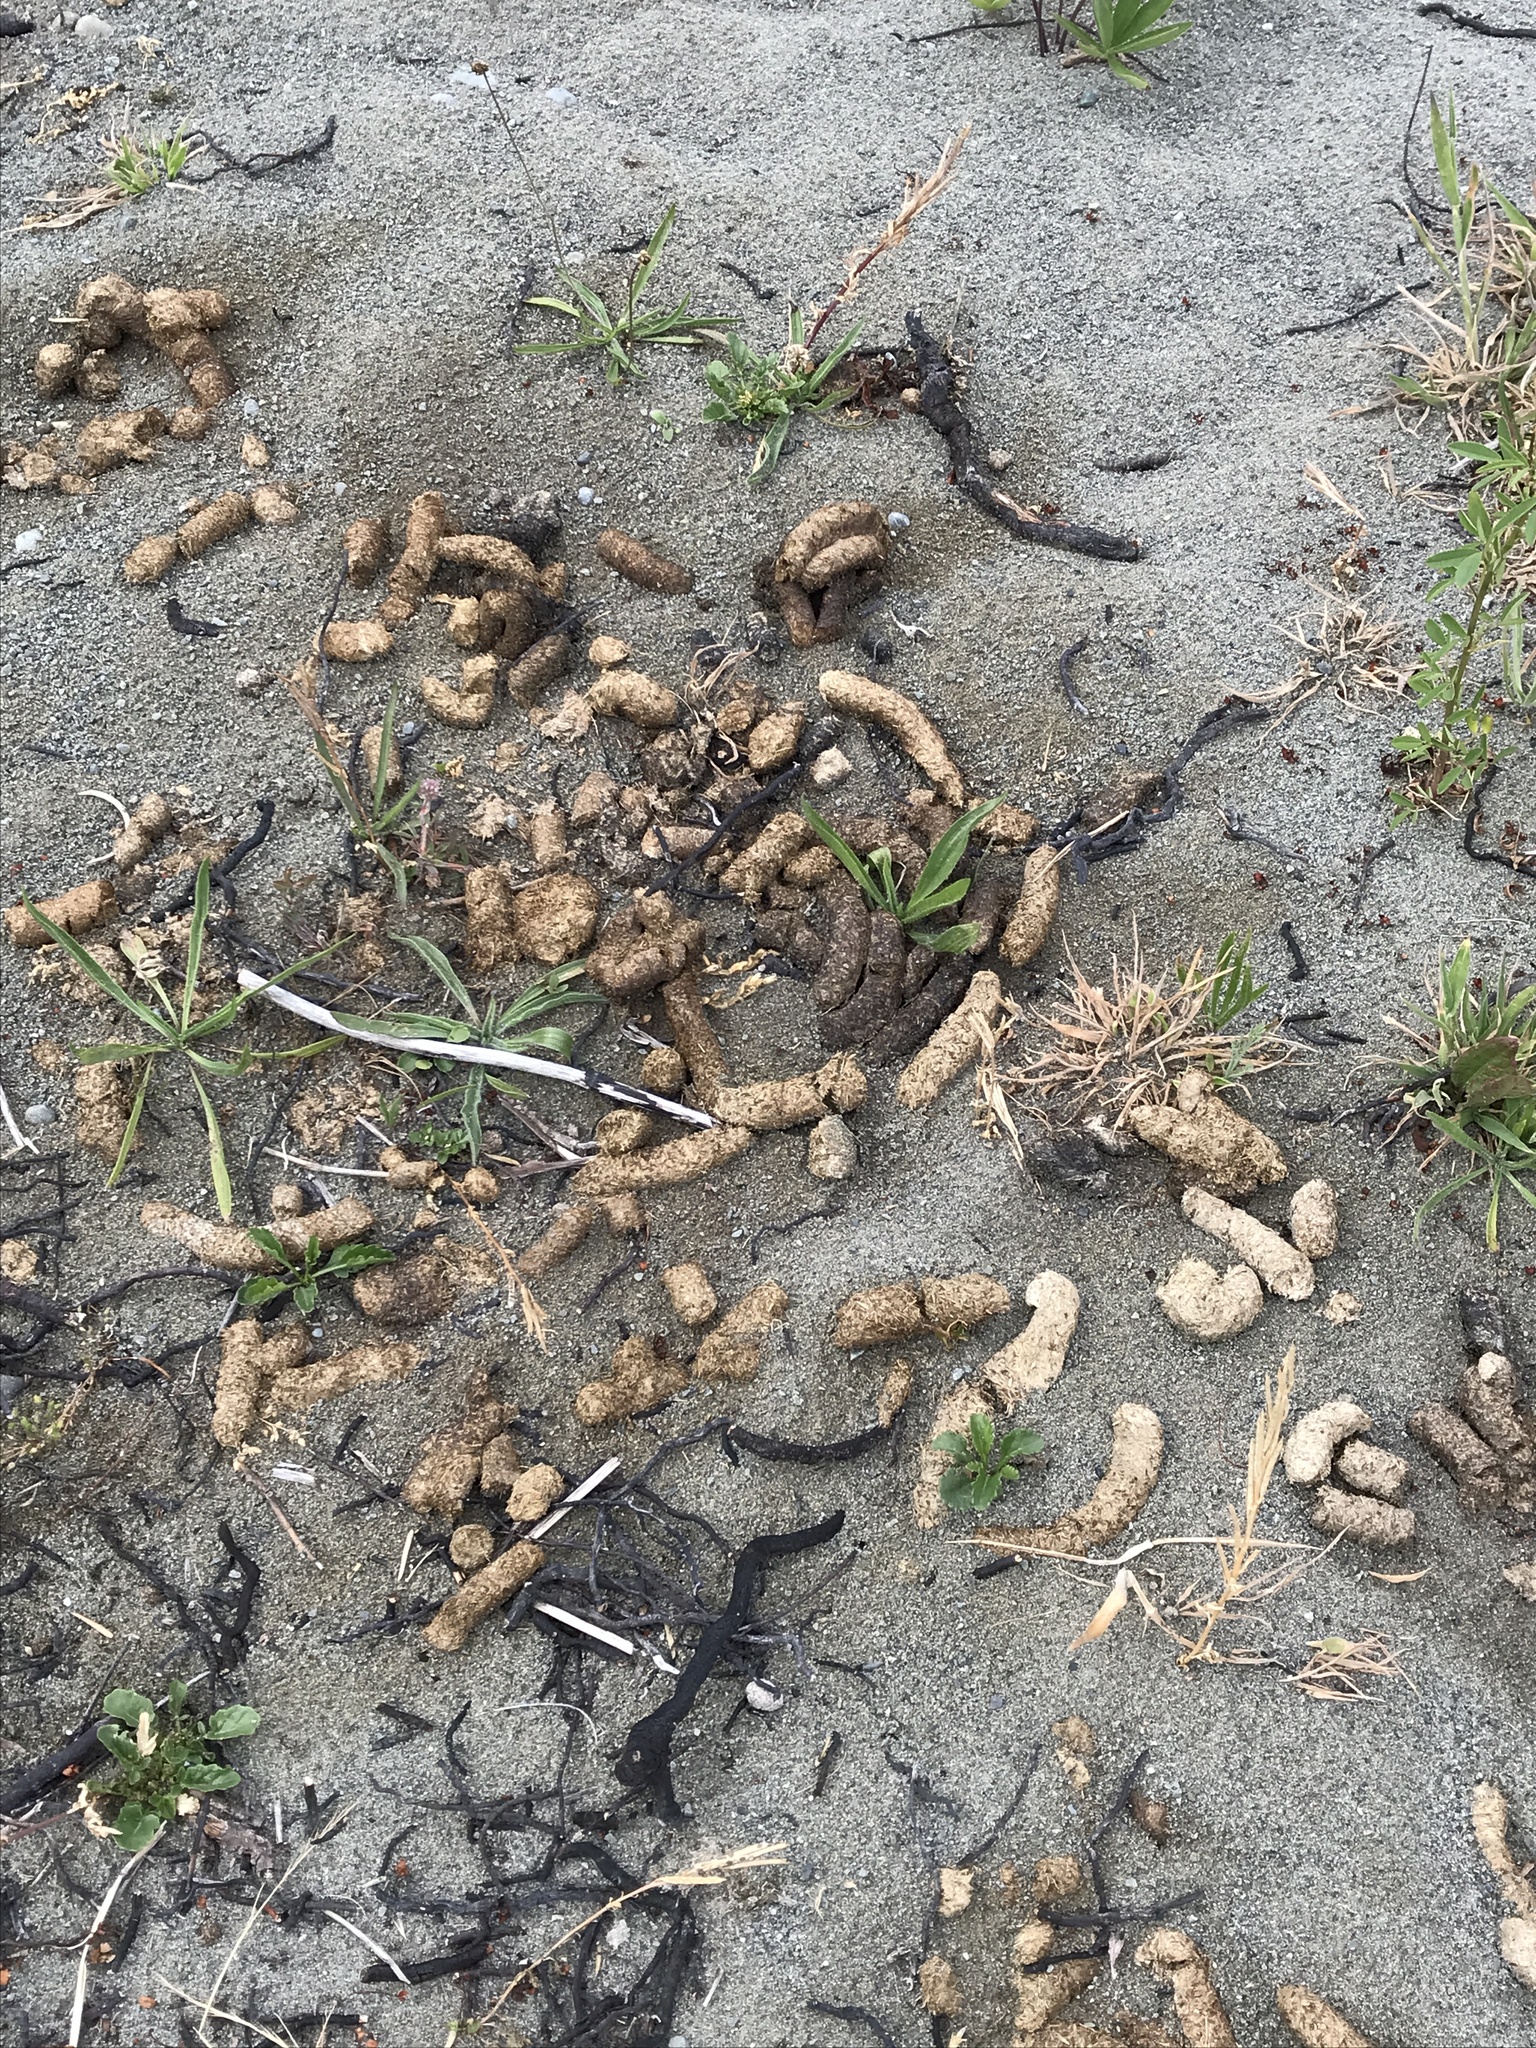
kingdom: Animalia
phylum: Chordata
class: Aves
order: Anseriformes
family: Anatidae
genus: Branta
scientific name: Branta canadensis
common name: Canada goose
